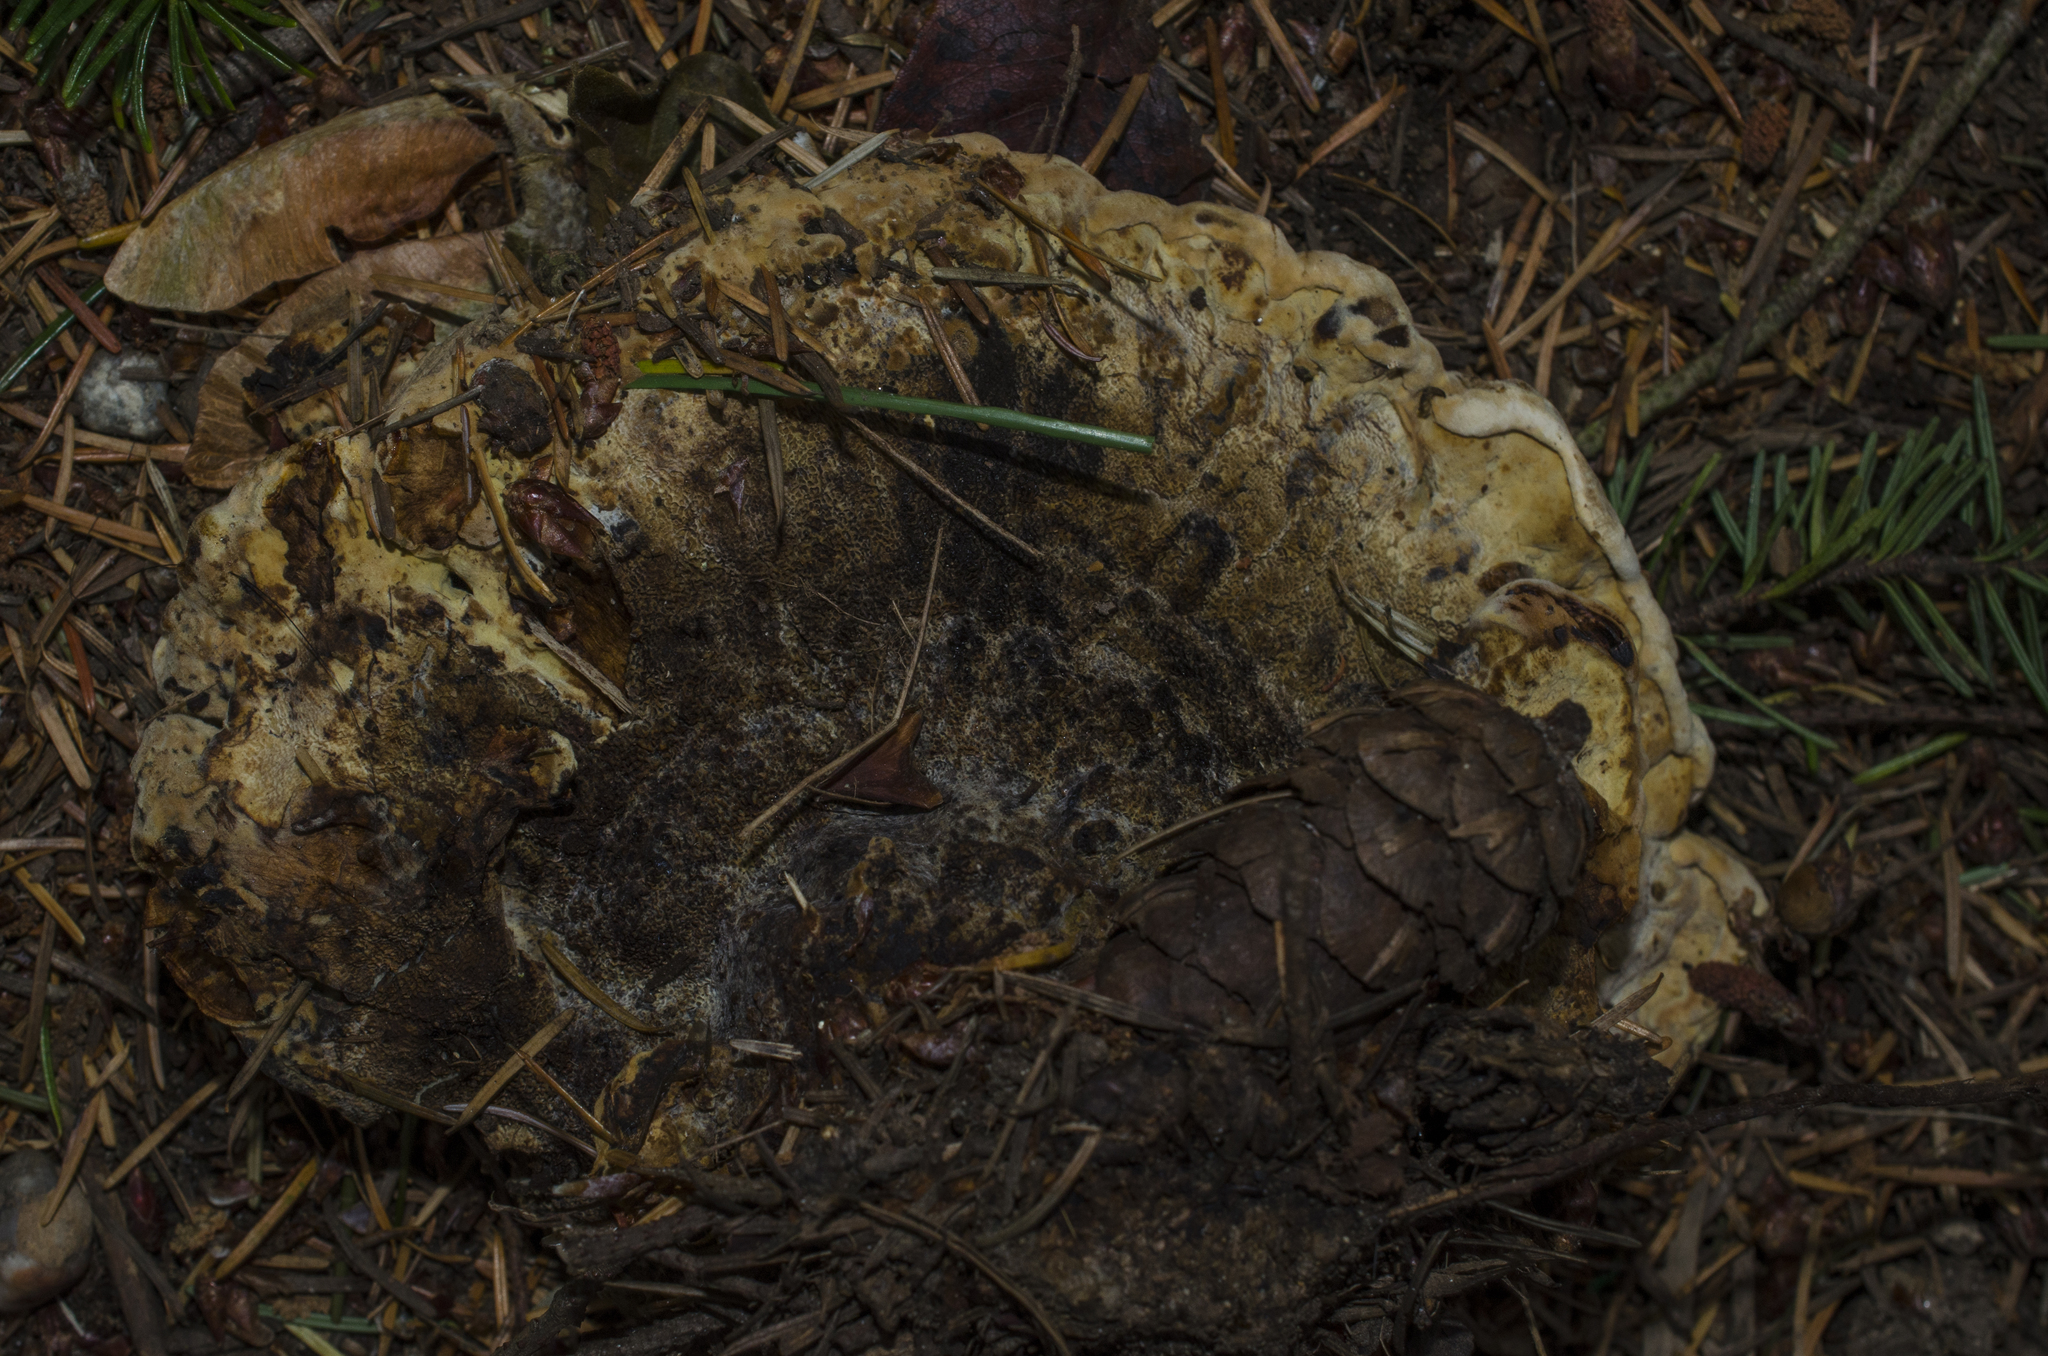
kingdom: Fungi
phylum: Basidiomycota
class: Agaricomycetes
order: Polyporales
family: Laetiporaceae
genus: Phaeolus
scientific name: Phaeolus schweinitzii
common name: Dyer's mazegill
